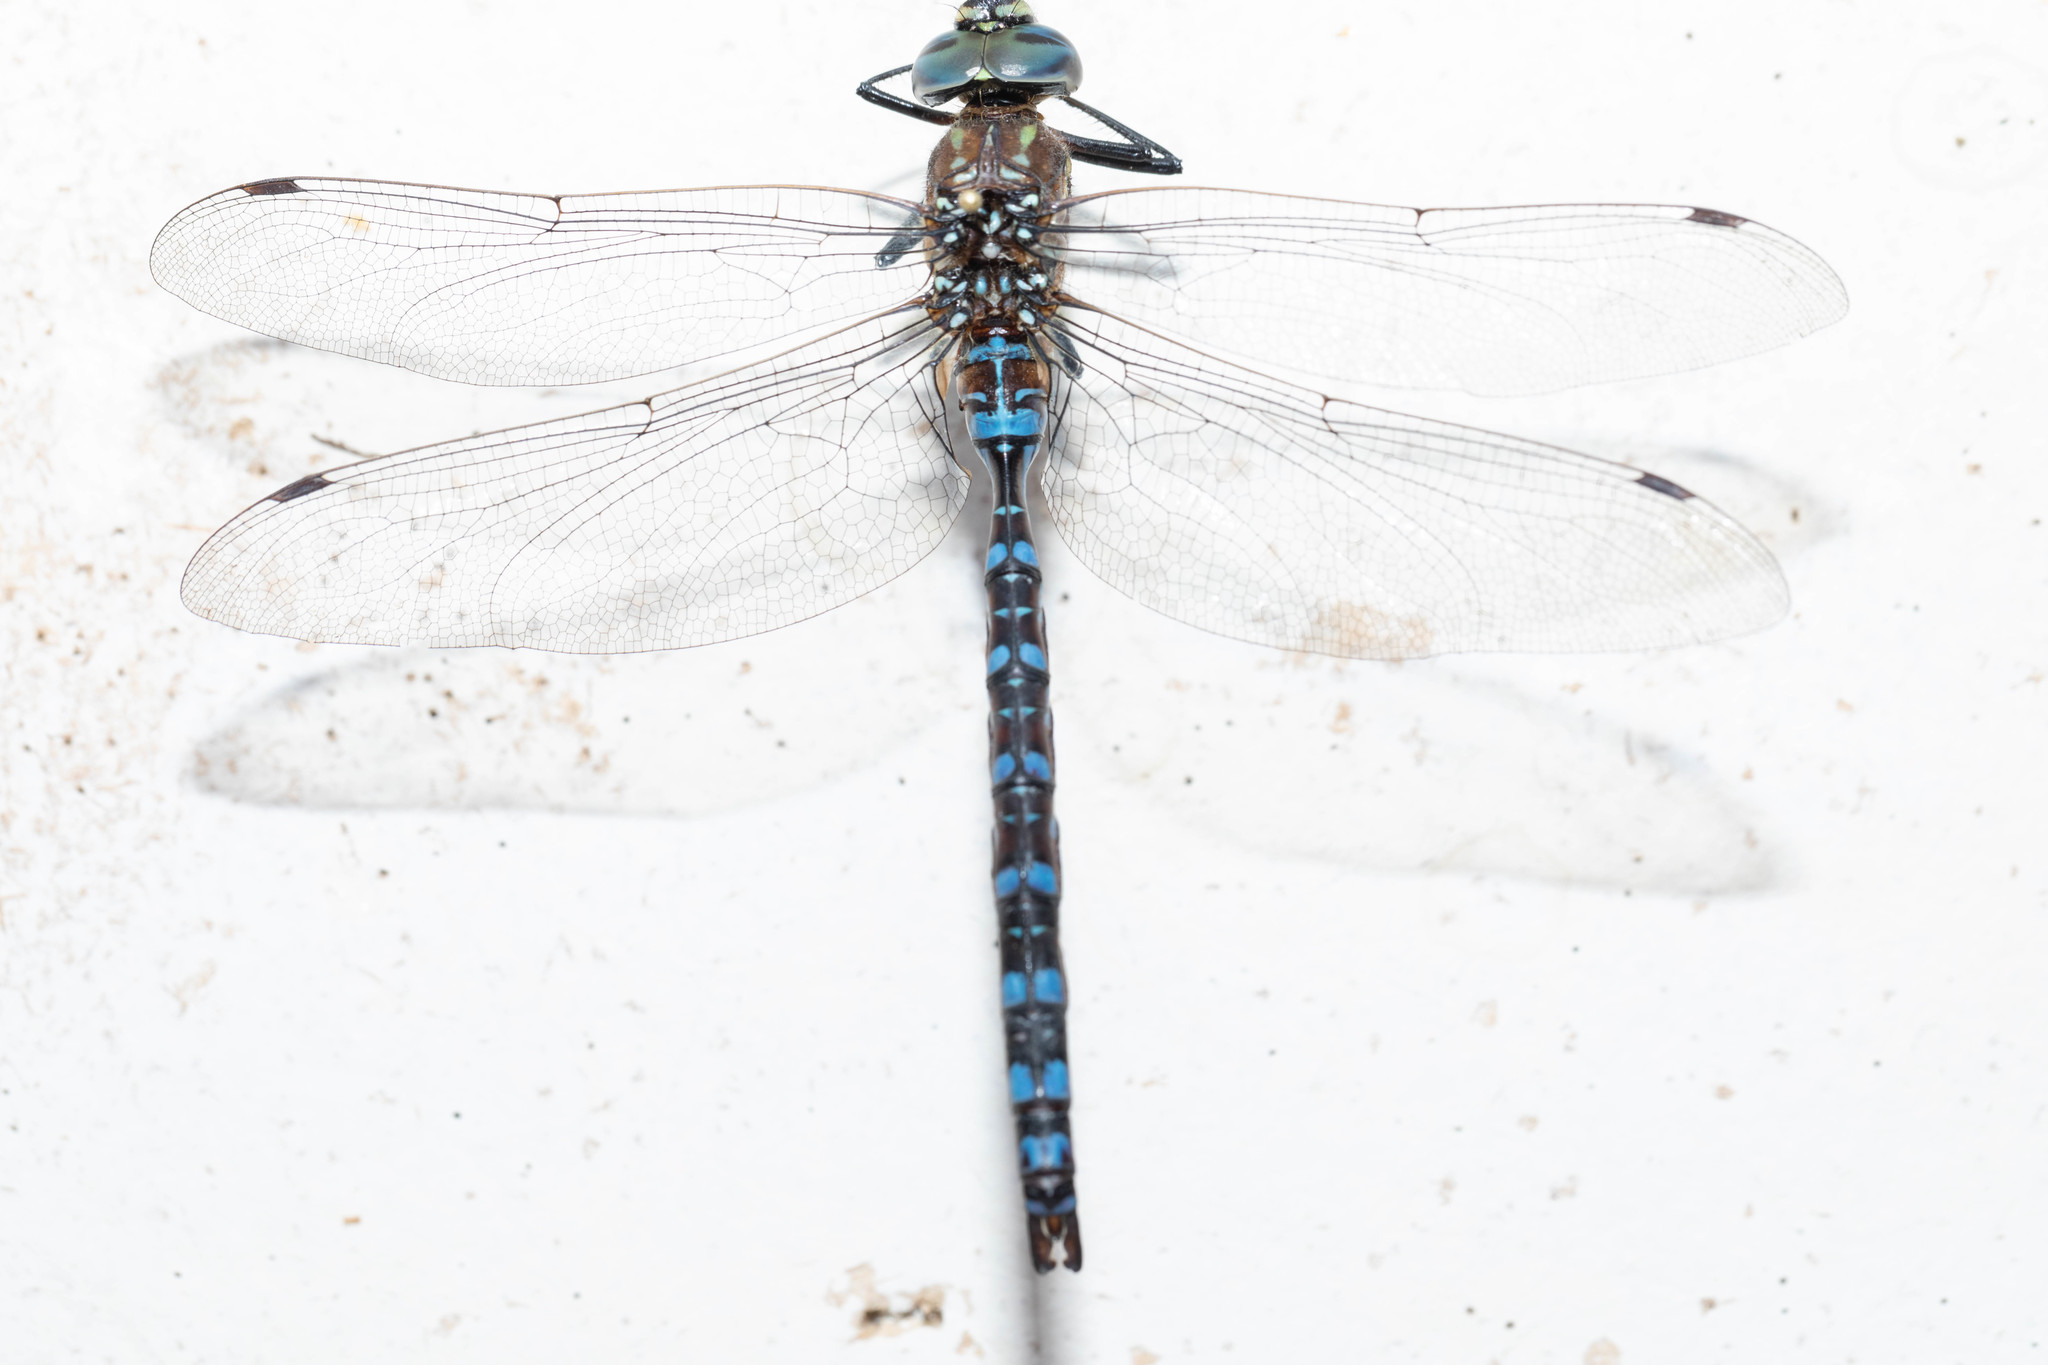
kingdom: Animalia
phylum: Arthropoda
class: Insecta
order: Odonata
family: Aeshnidae
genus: Aeshna
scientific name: Aeshna palmata
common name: Paddle-tailed darner
